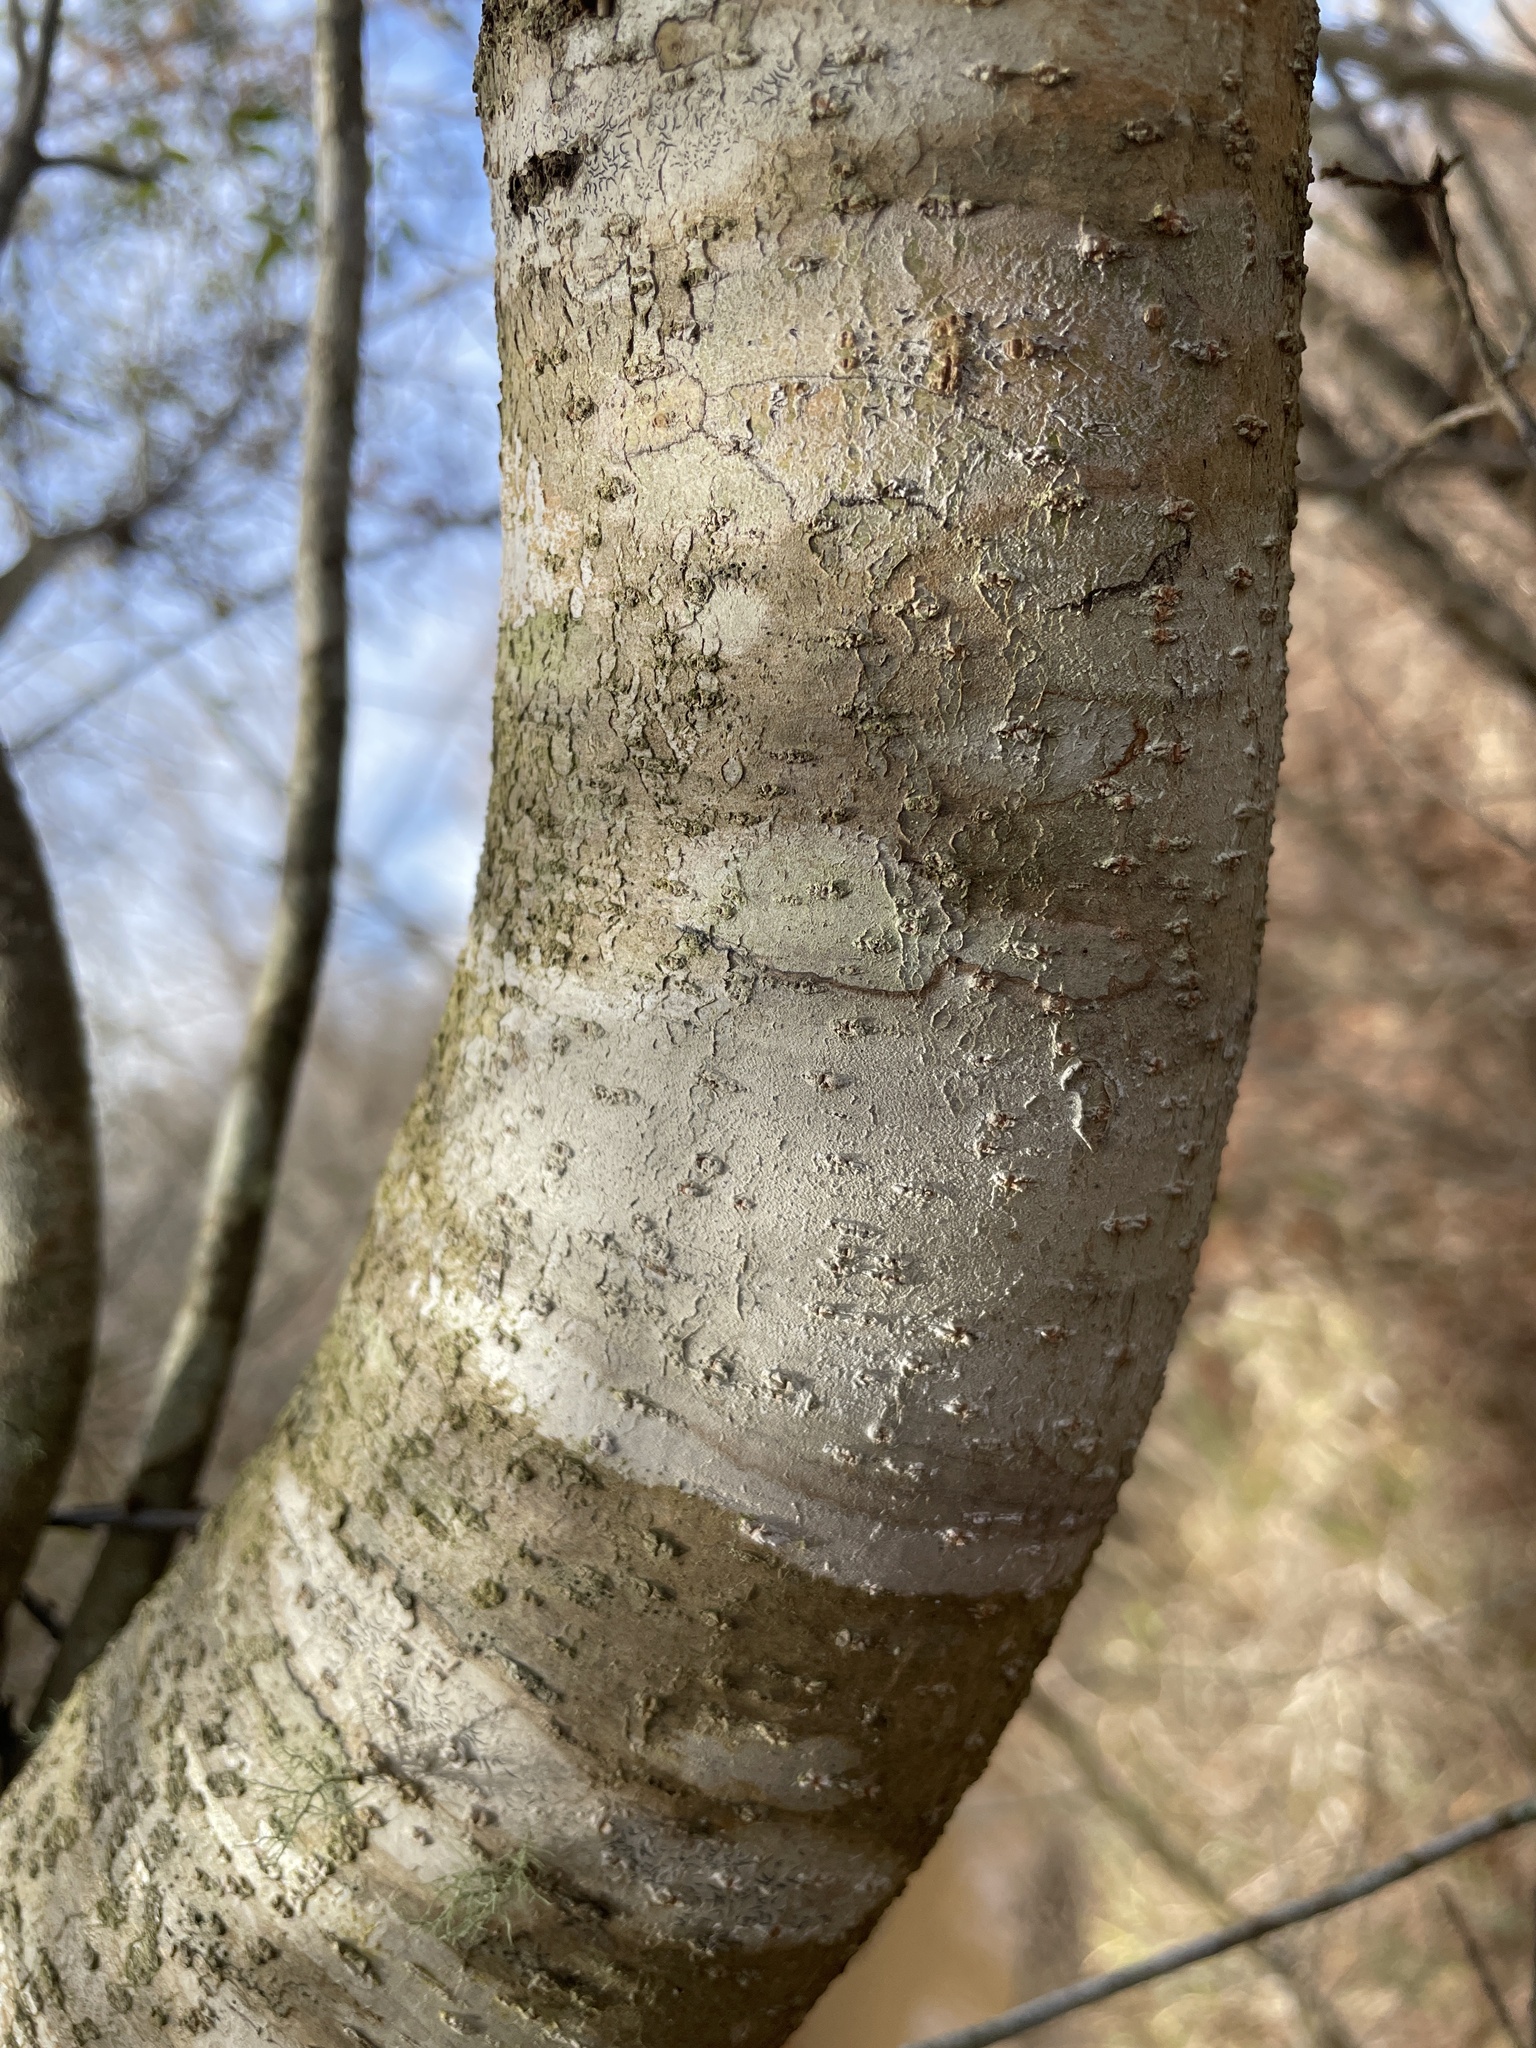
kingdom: Plantae
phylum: Tracheophyta
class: Magnoliopsida
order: Fagales
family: Myricaceae
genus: Morella
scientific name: Morella cerifera
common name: Wax myrtle
